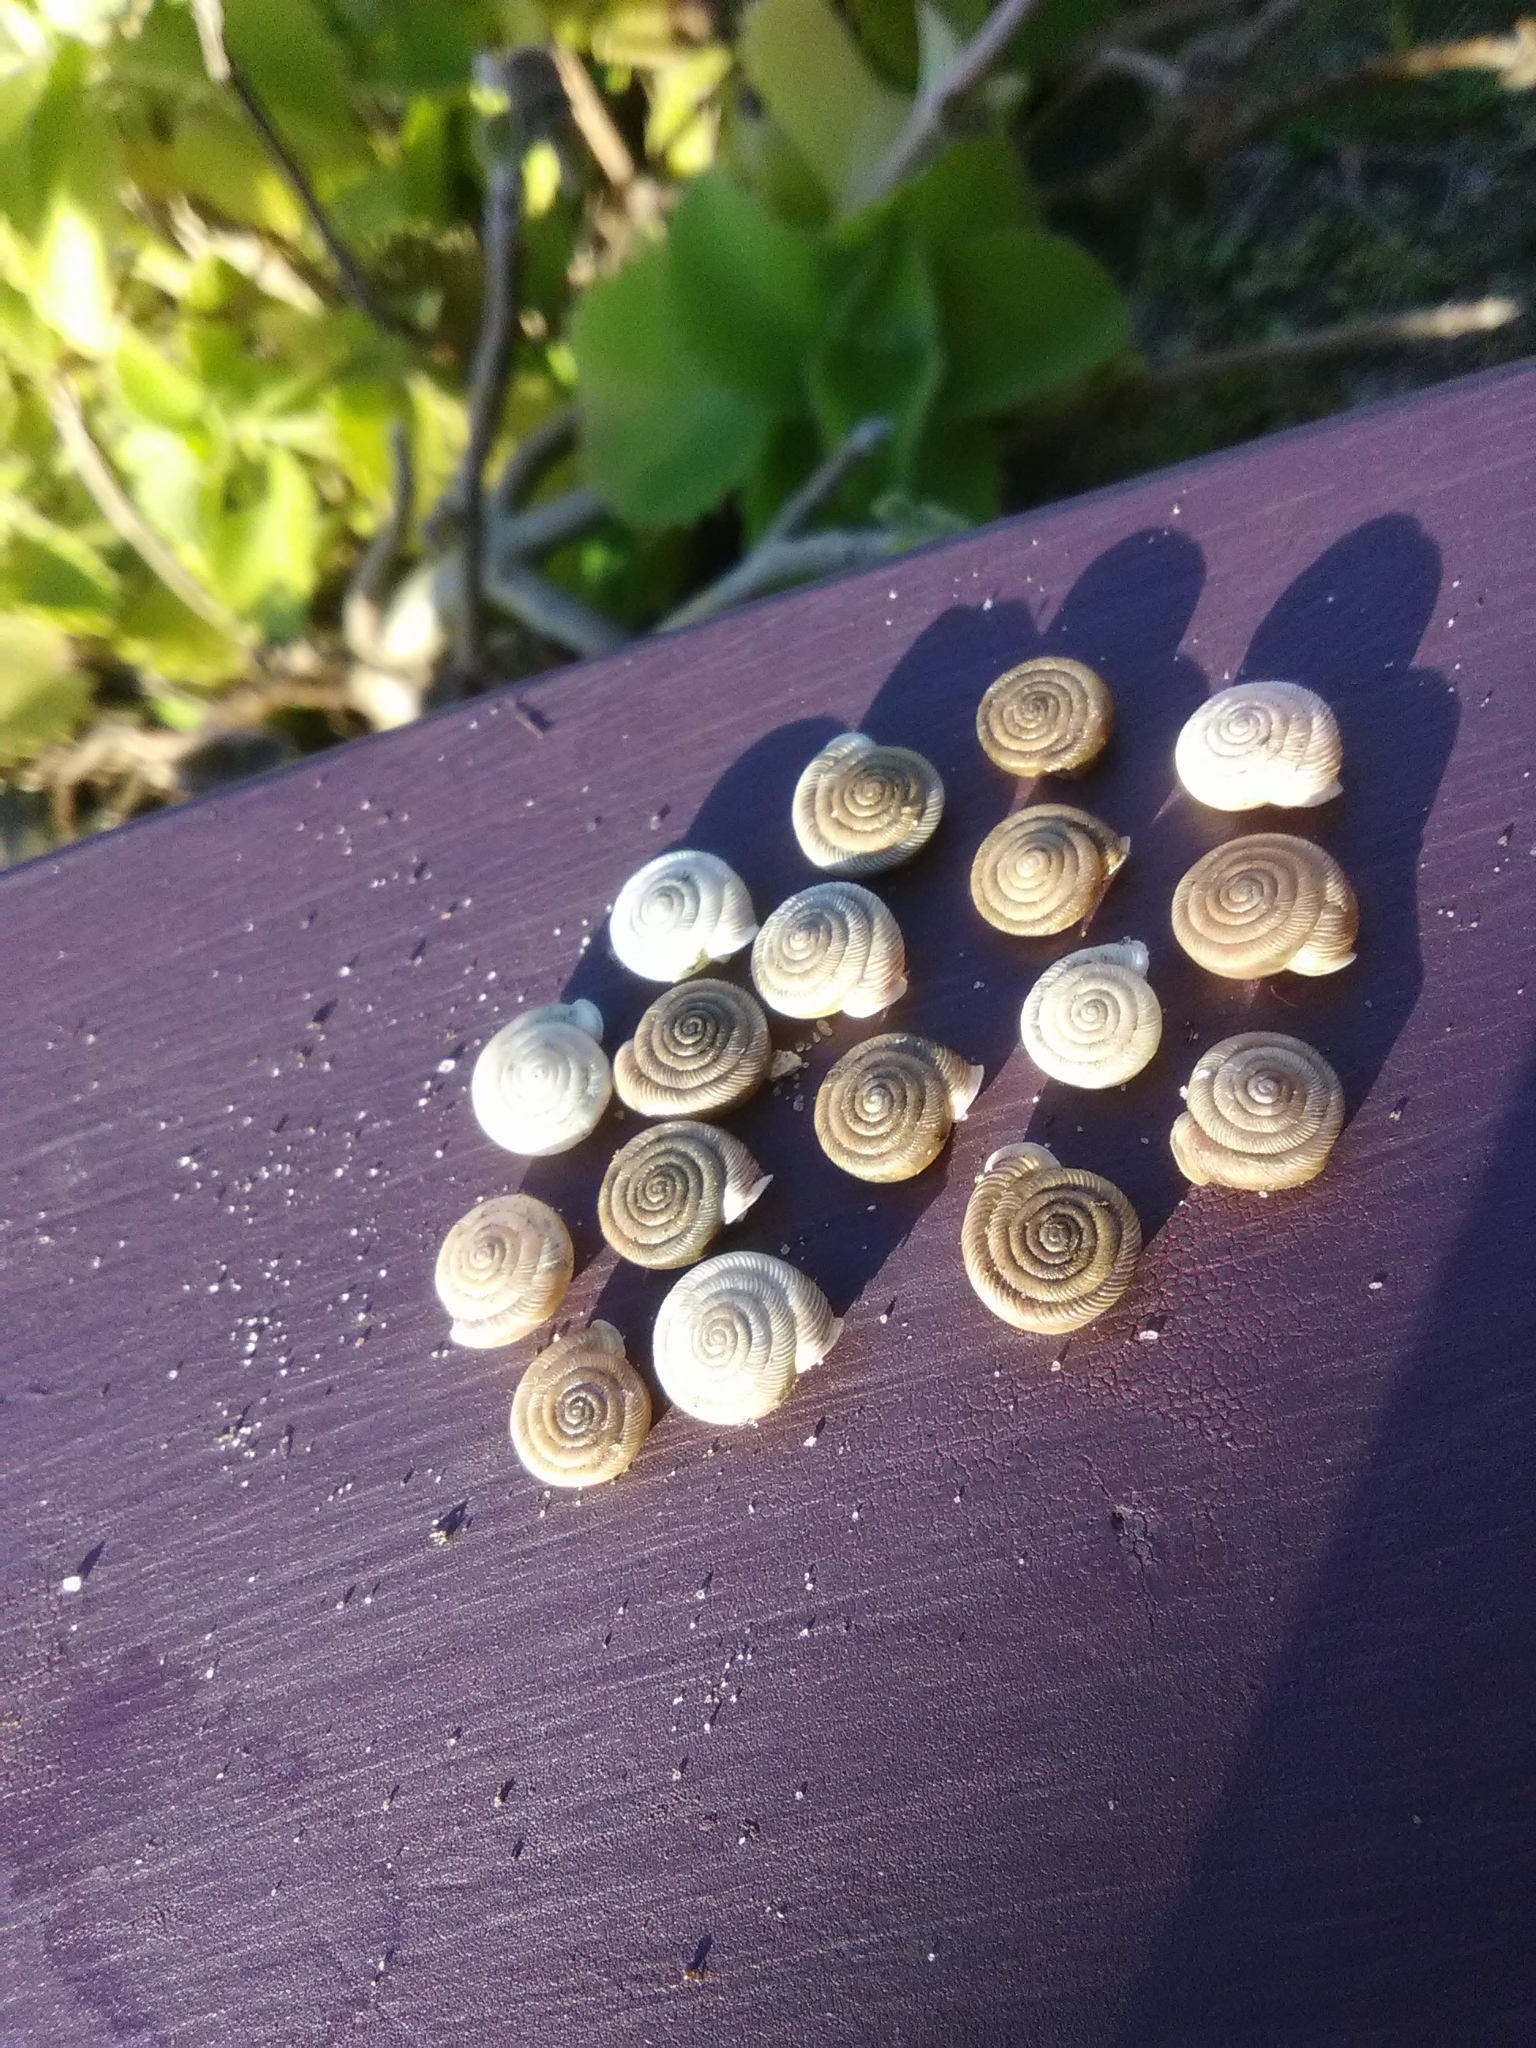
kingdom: Animalia
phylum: Mollusca
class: Gastropoda
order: Stylommatophora
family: Polygyridae
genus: Polygyra
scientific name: Polygyra cereolus
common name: Southern flatcone snail
